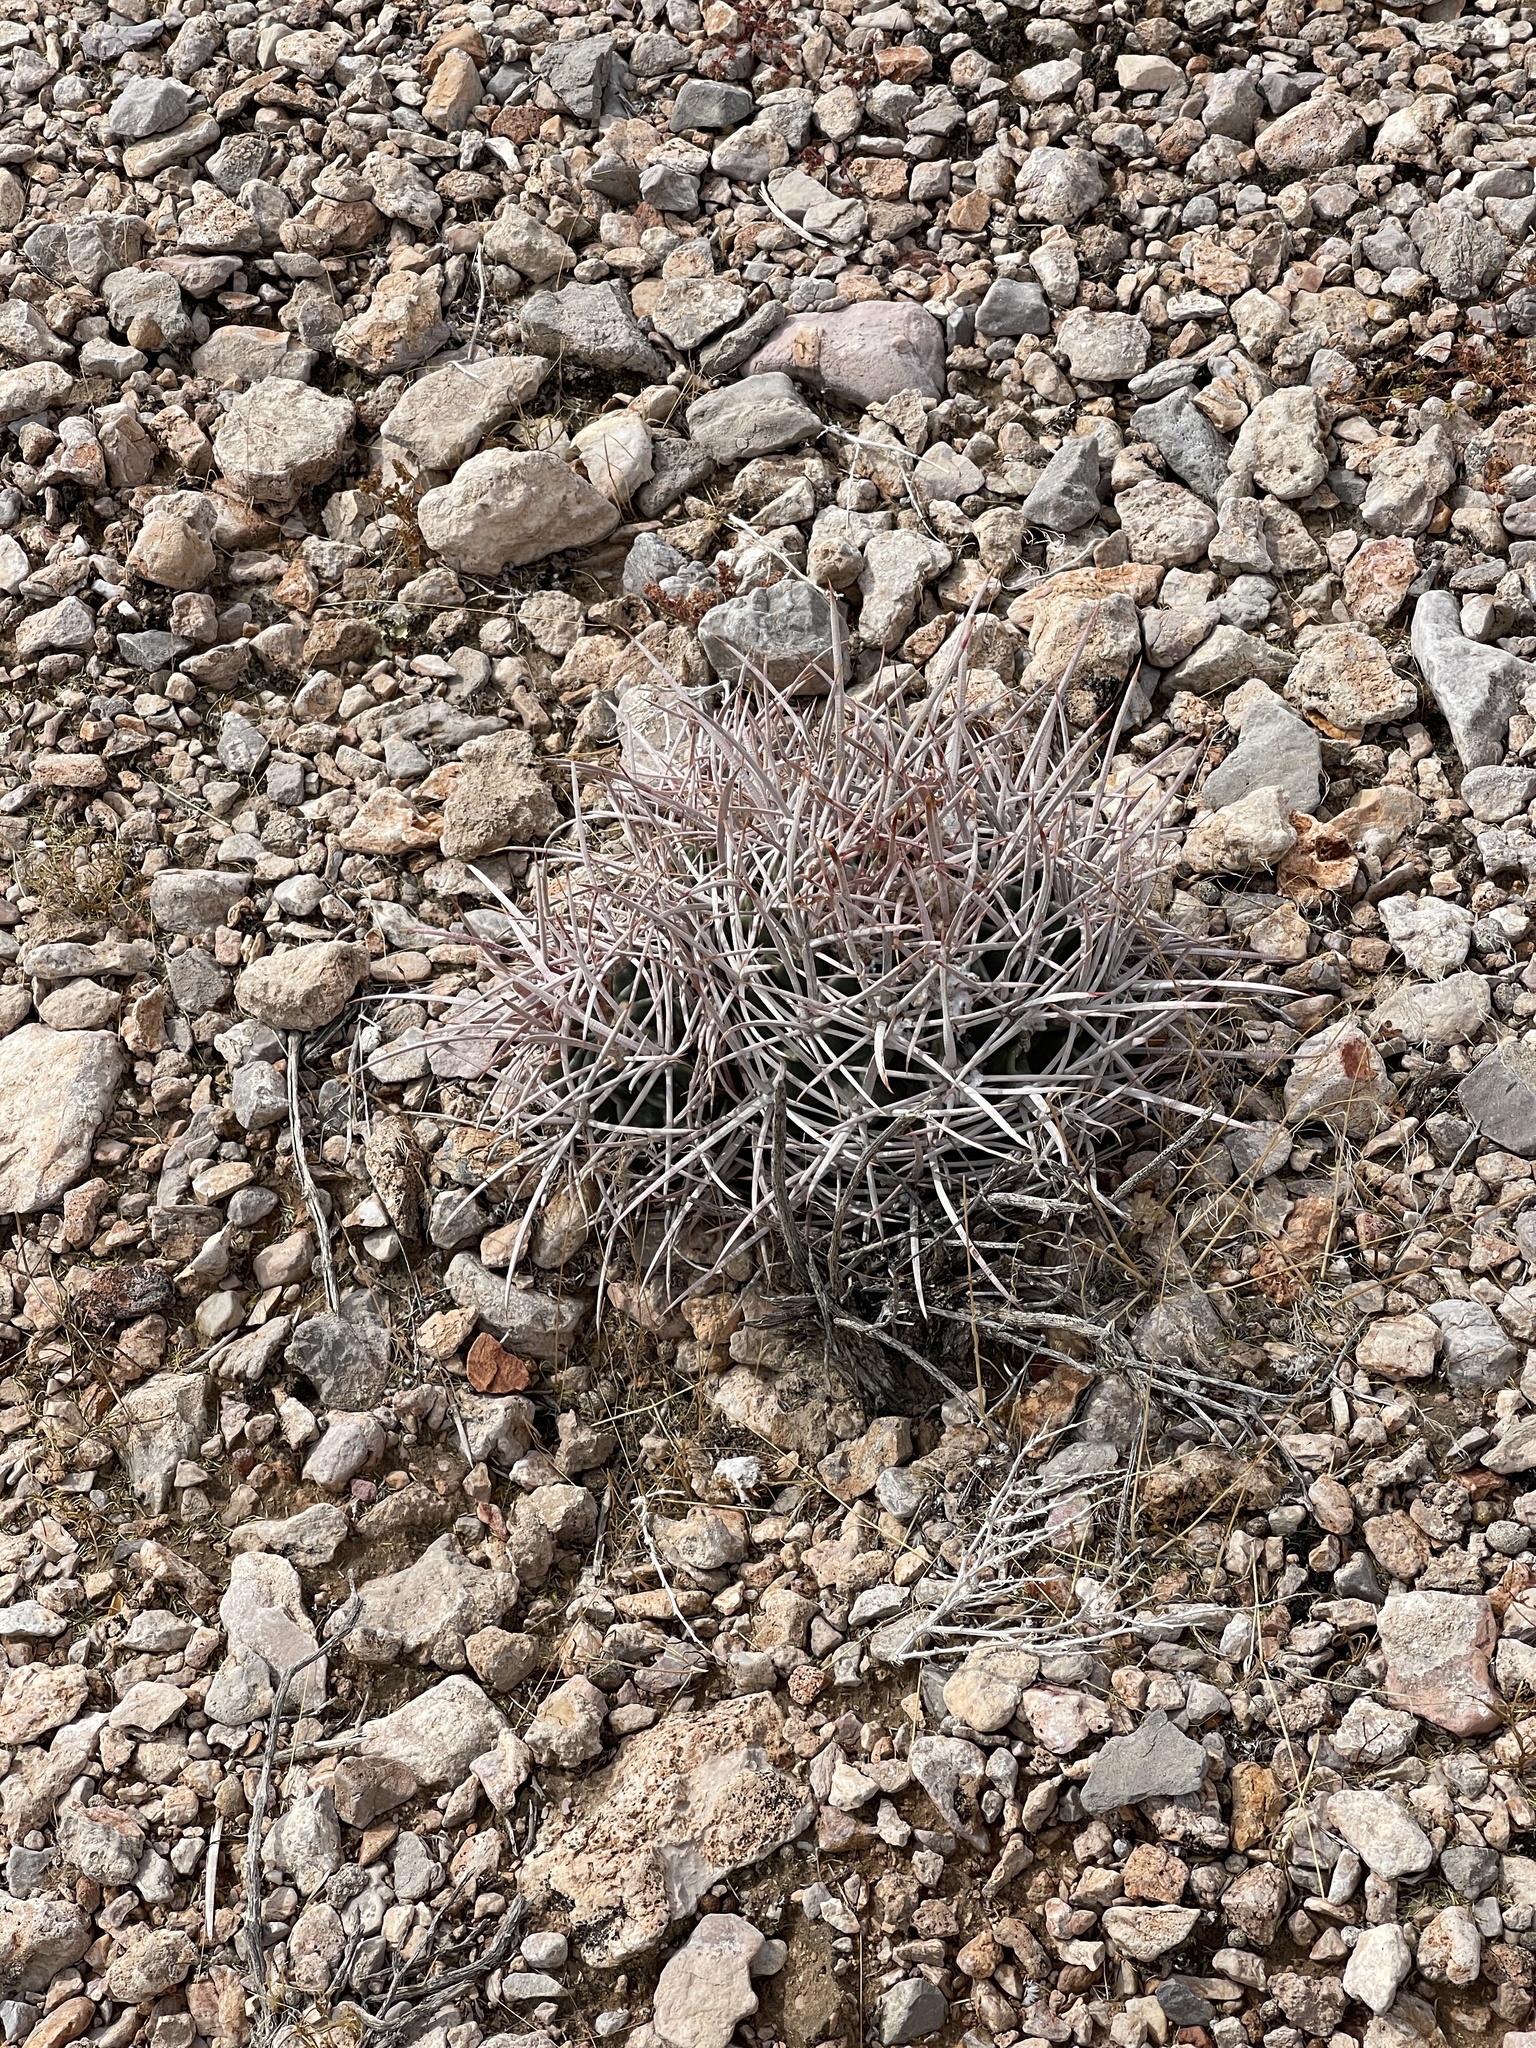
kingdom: Plantae
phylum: Tracheophyta
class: Magnoliopsida
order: Caryophyllales
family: Cactaceae
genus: Echinocactus
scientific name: Echinocactus polycephalus
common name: Cottontop cactus
